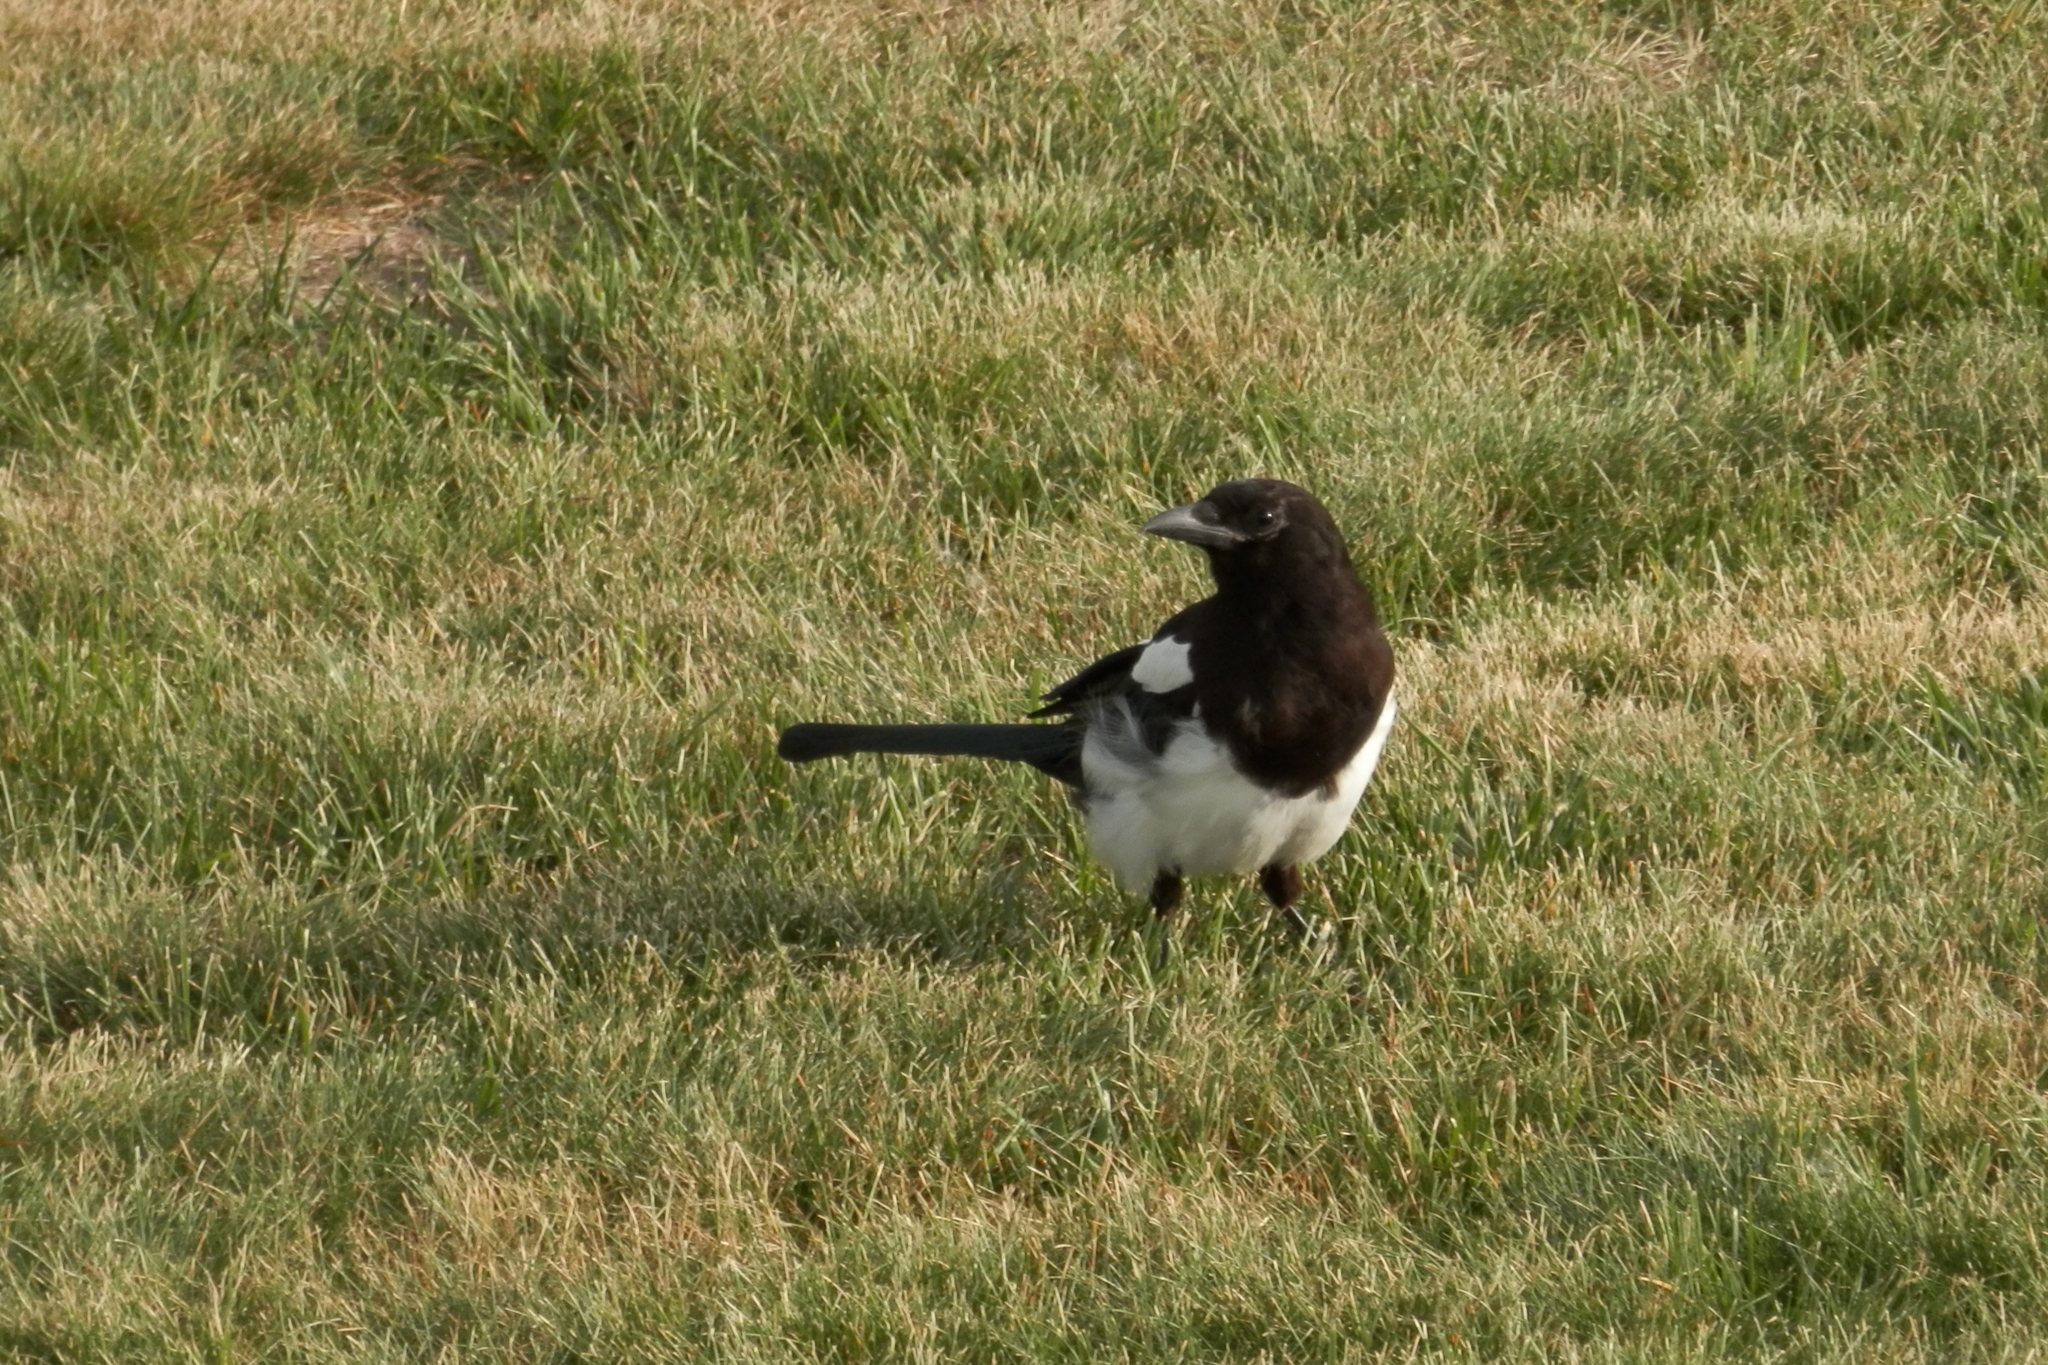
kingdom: Animalia
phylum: Chordata
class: Aves
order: Passeriformes
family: Corvidae
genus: Pica
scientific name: Pica hudsonia
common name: Black-billed magpie
